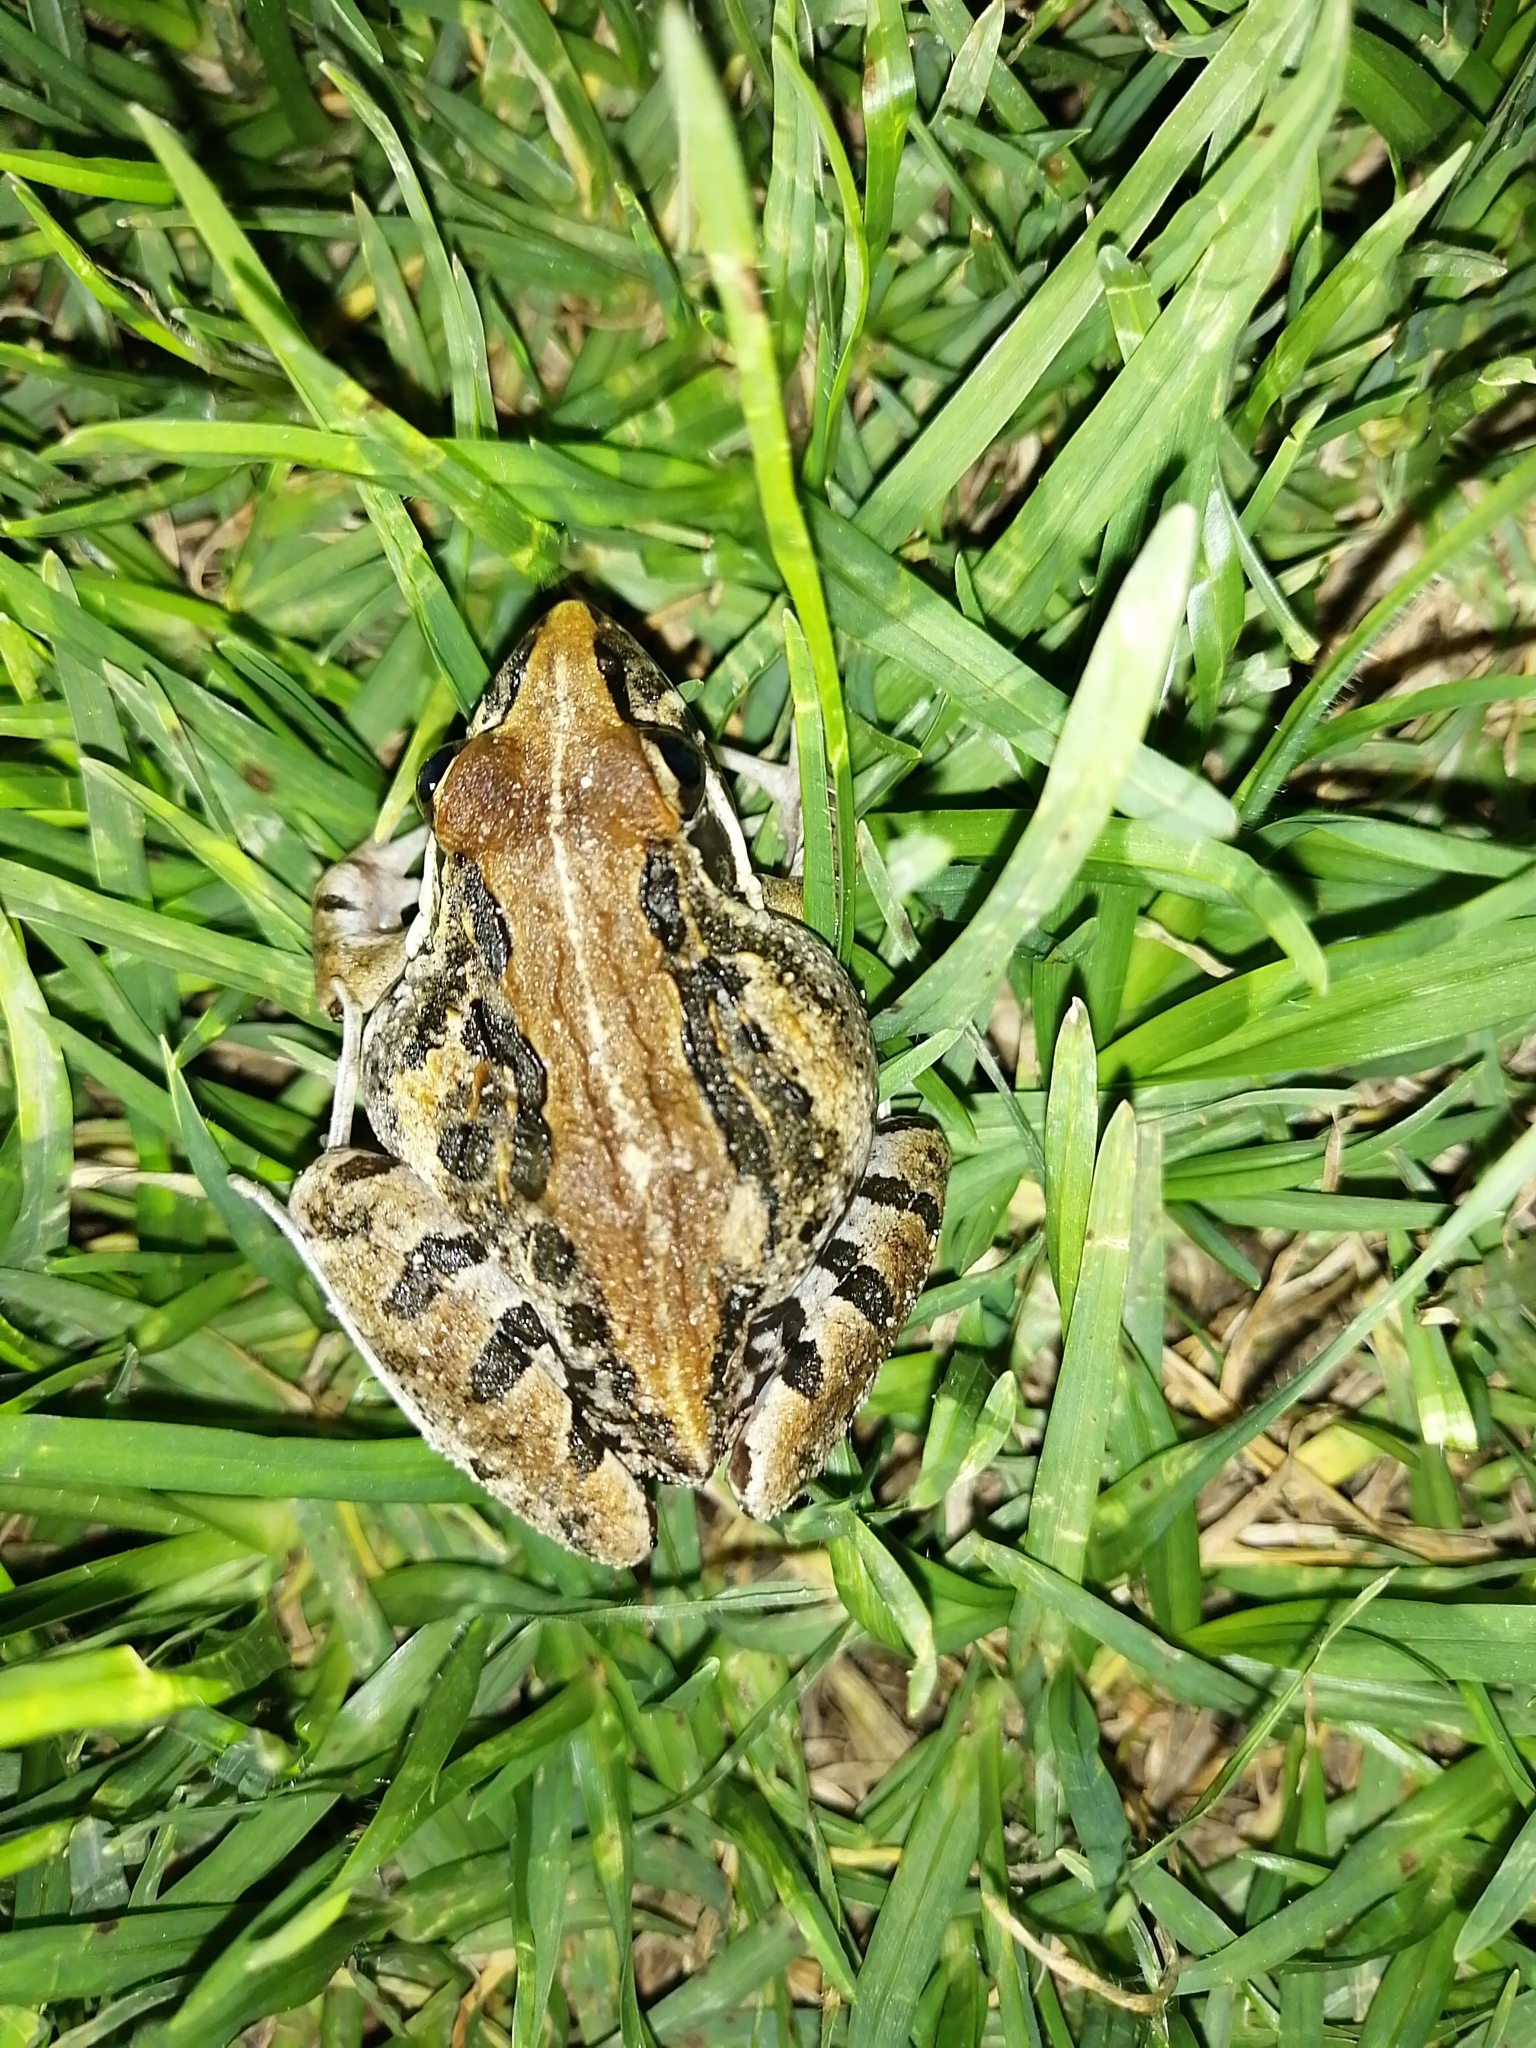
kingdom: Animalia
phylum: Chordata
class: Amphibia
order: Anura
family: Pyxicephalidae
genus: Strongylopus
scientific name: Strongylopus grayii
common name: Gray's stream frog
